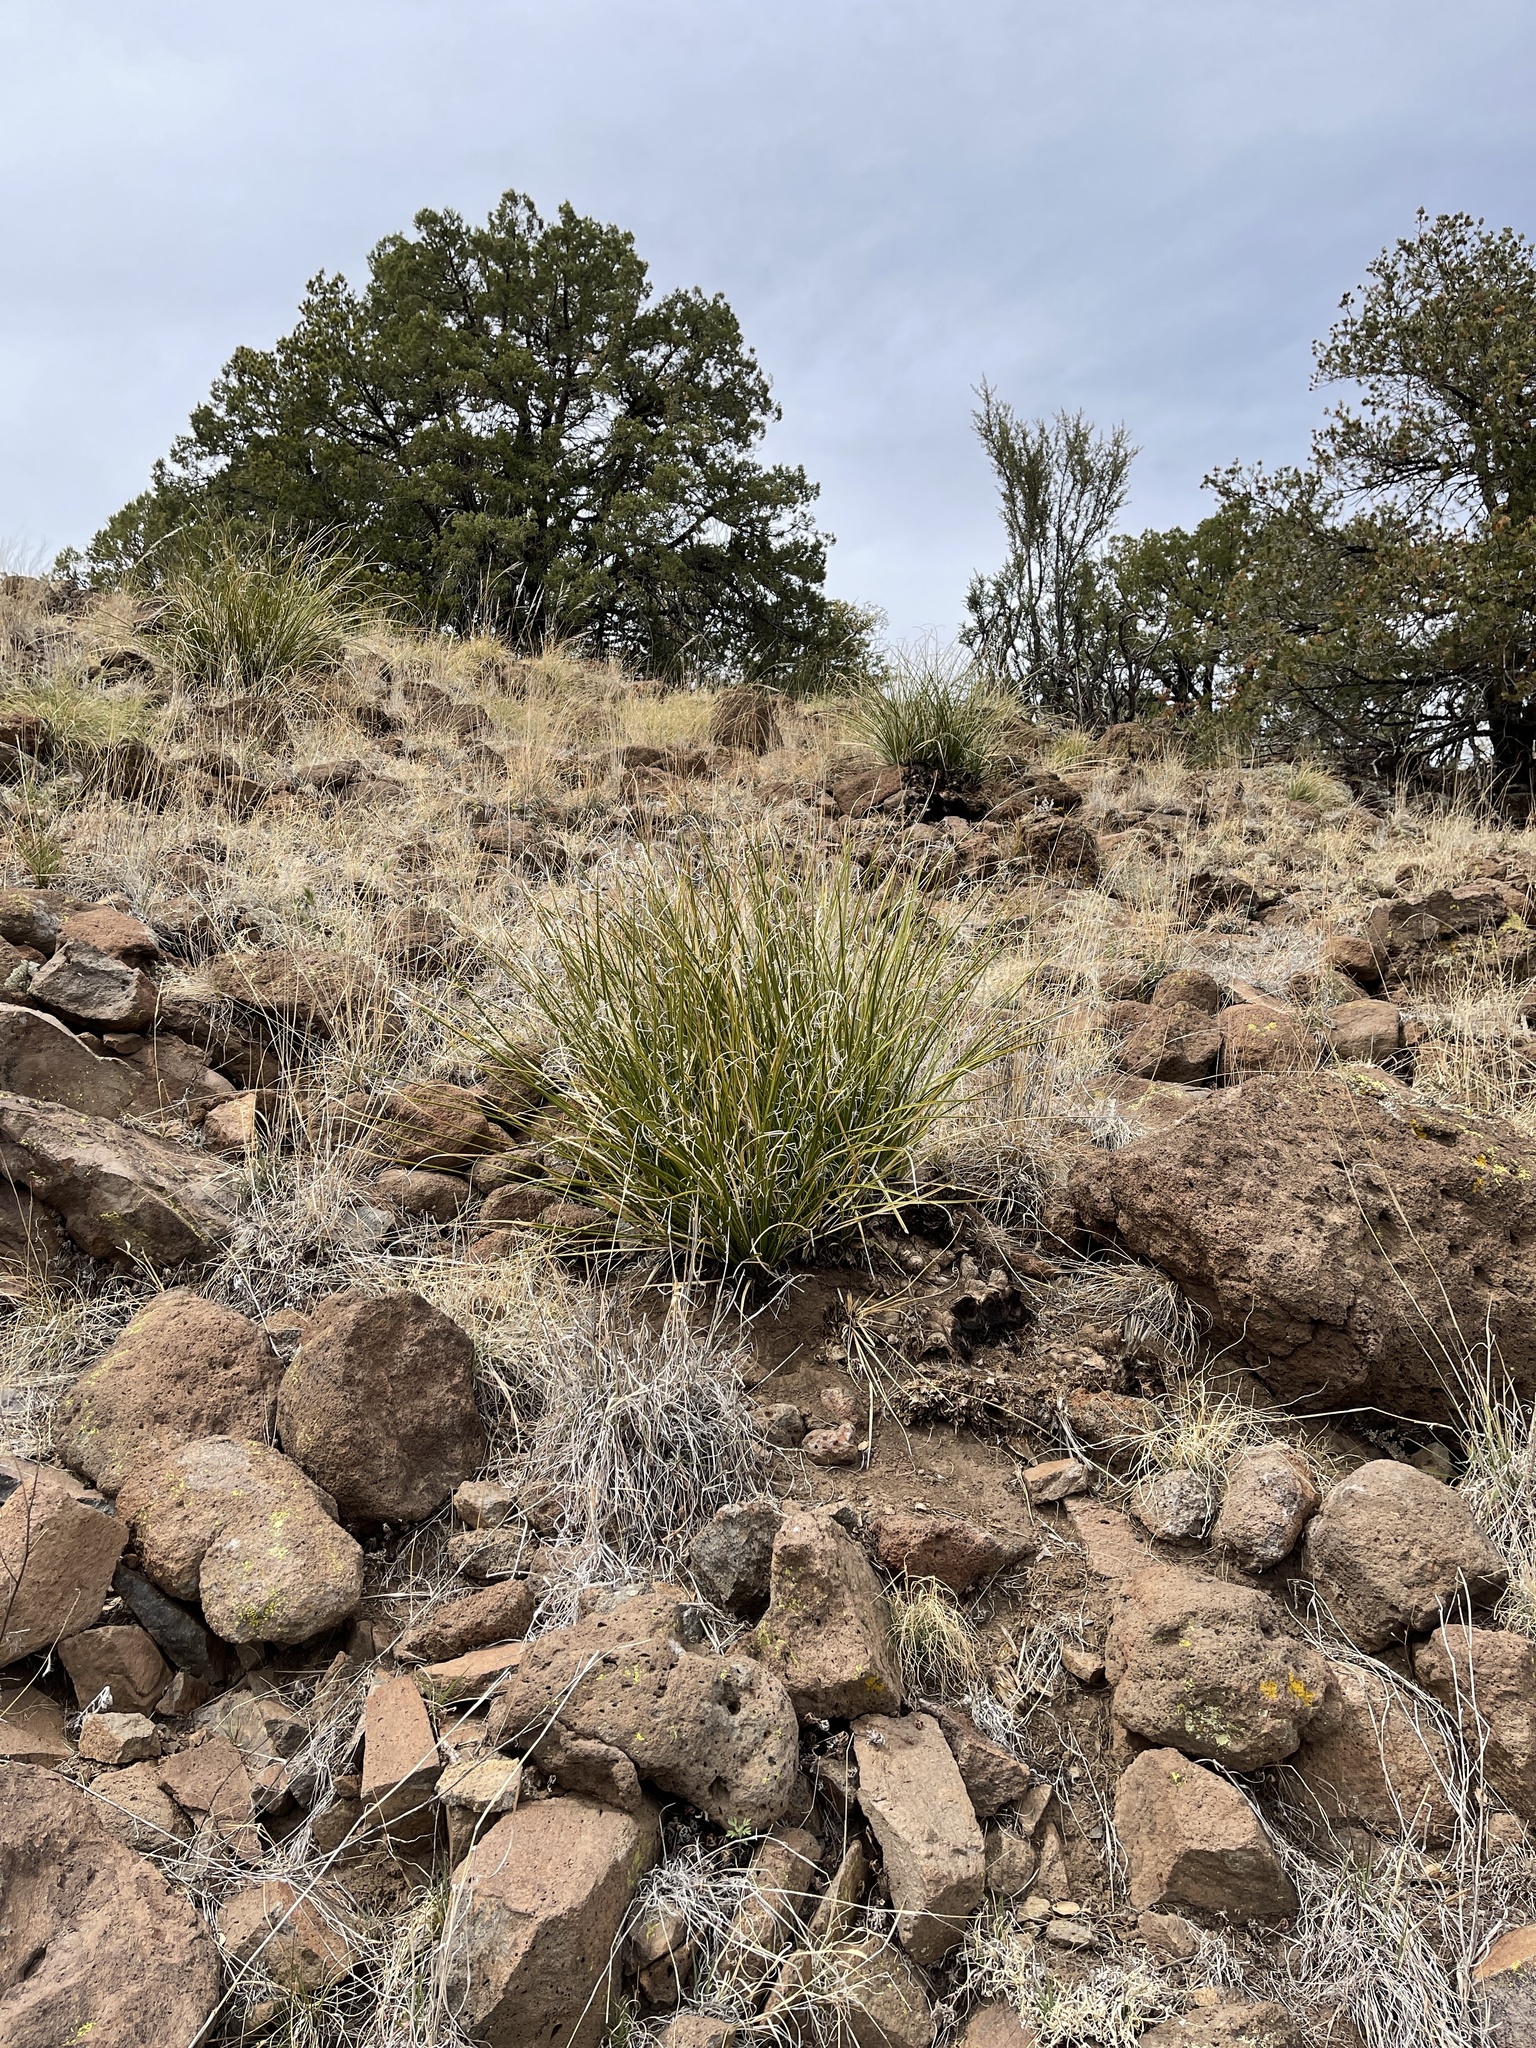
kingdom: Plantae
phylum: Tracheophyta
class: Liliopsida
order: Asparagales
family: Asparagaceae
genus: Nolina
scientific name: Nolina microcarpa
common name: Bear-grass
